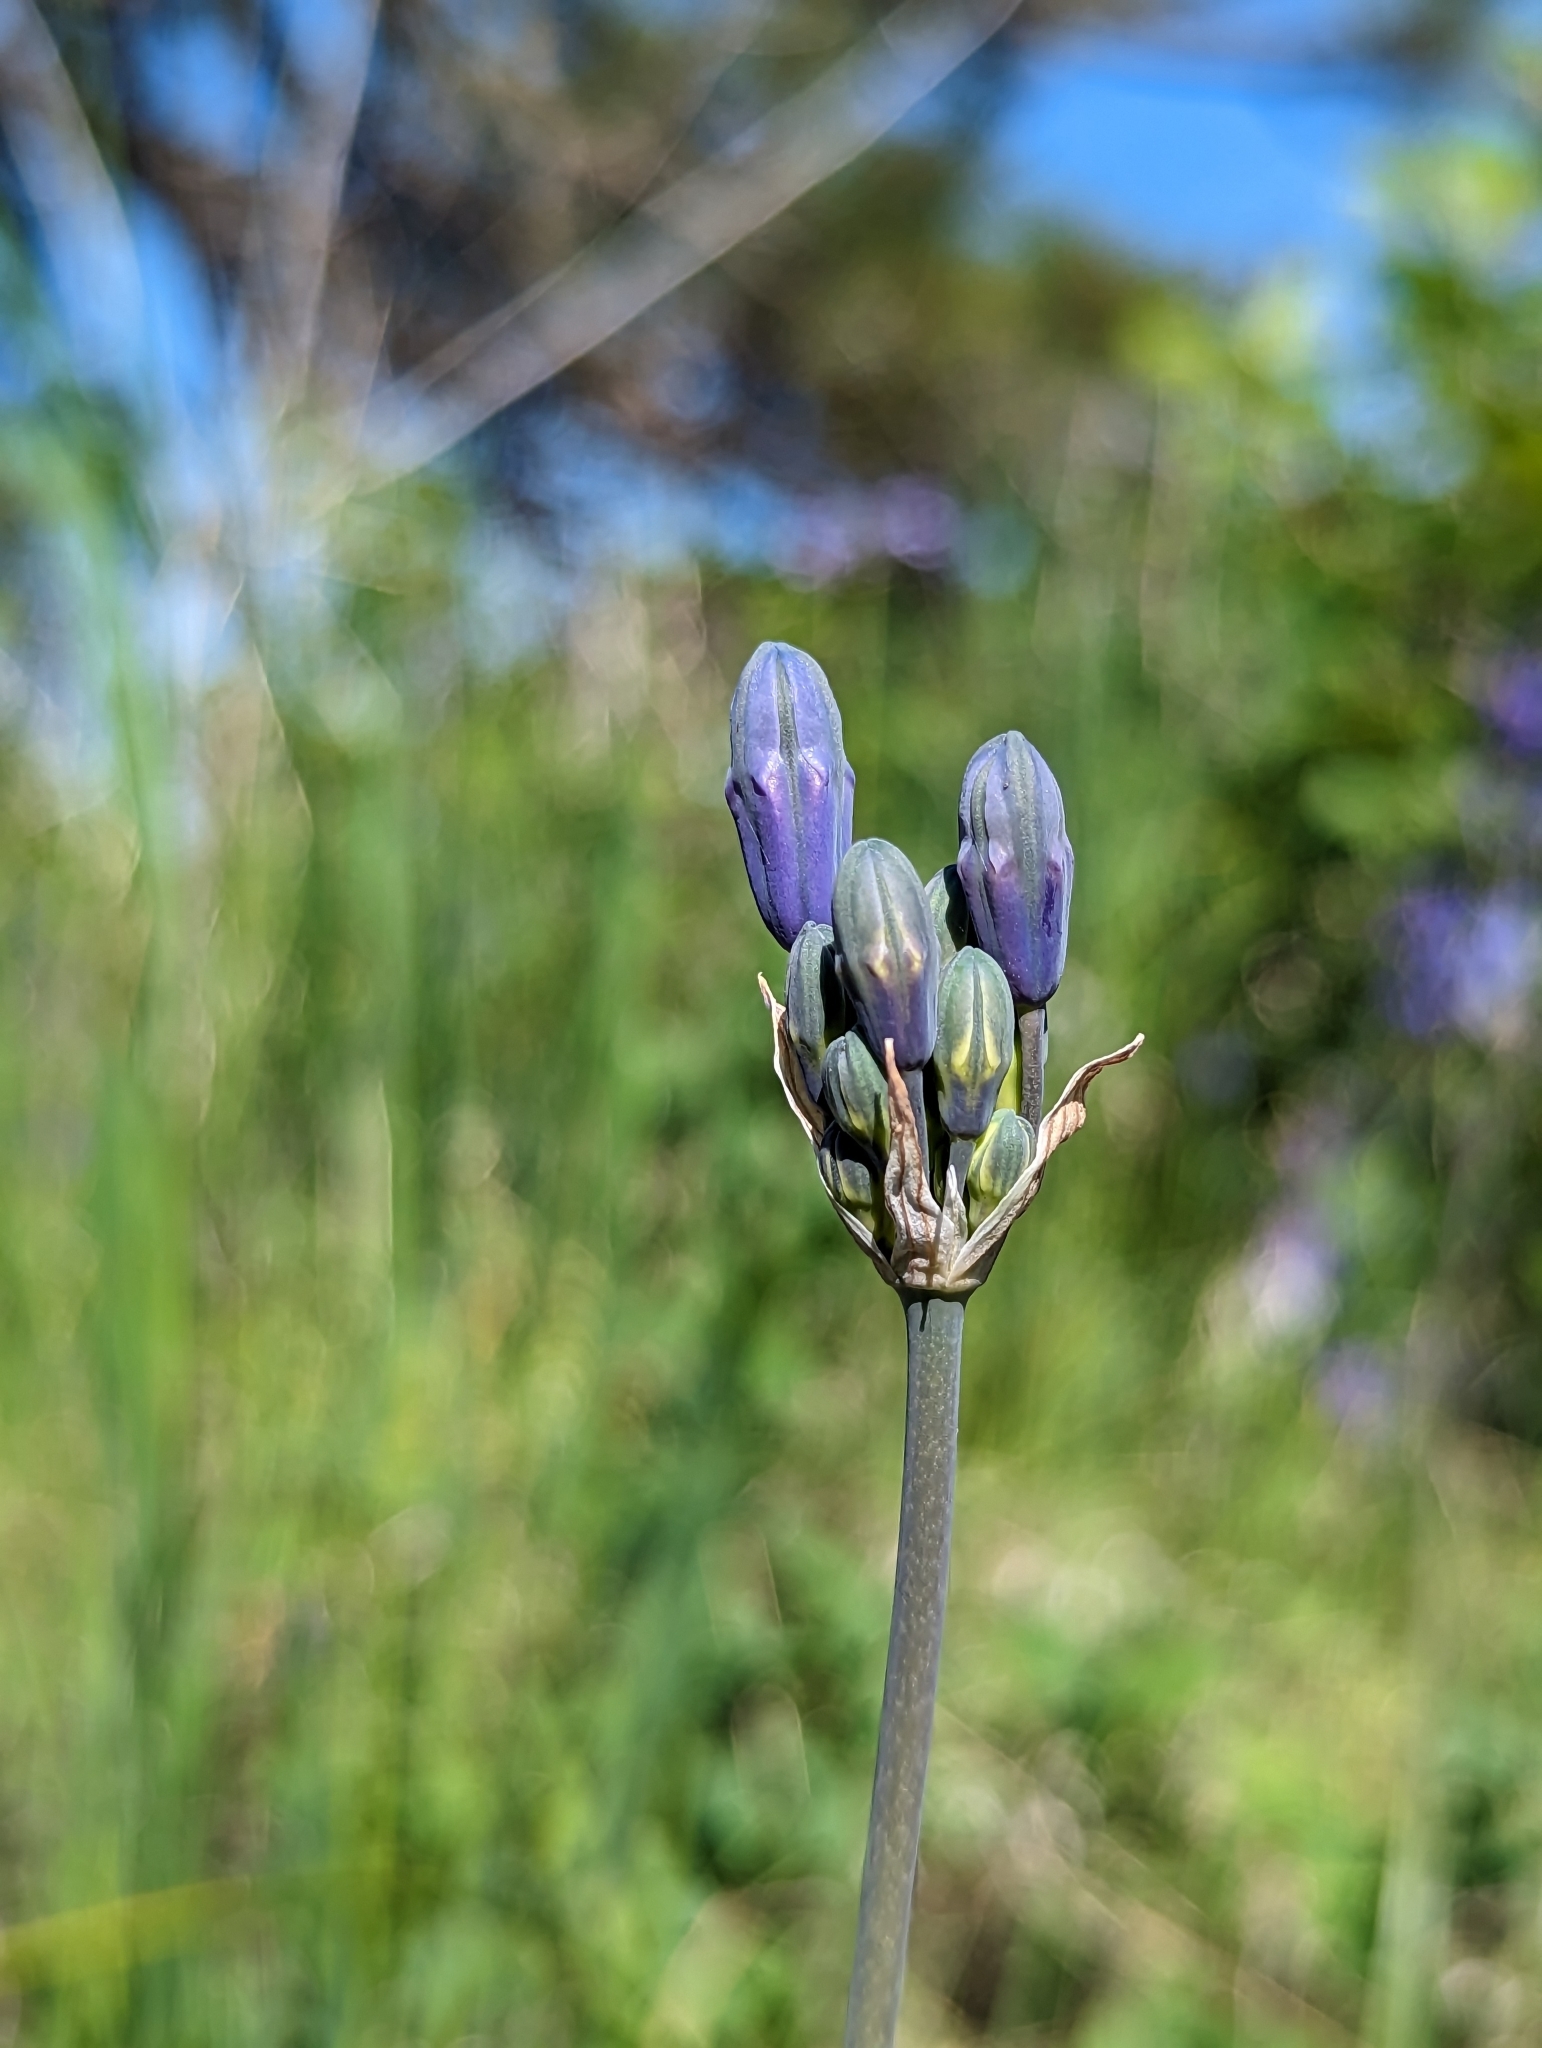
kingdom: Plantae
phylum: Tracheophyta
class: Liliopsida
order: Asparagales
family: Asparagaceae
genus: Triteleia
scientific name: Triteleia grandiflora
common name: Wild hyacinth
